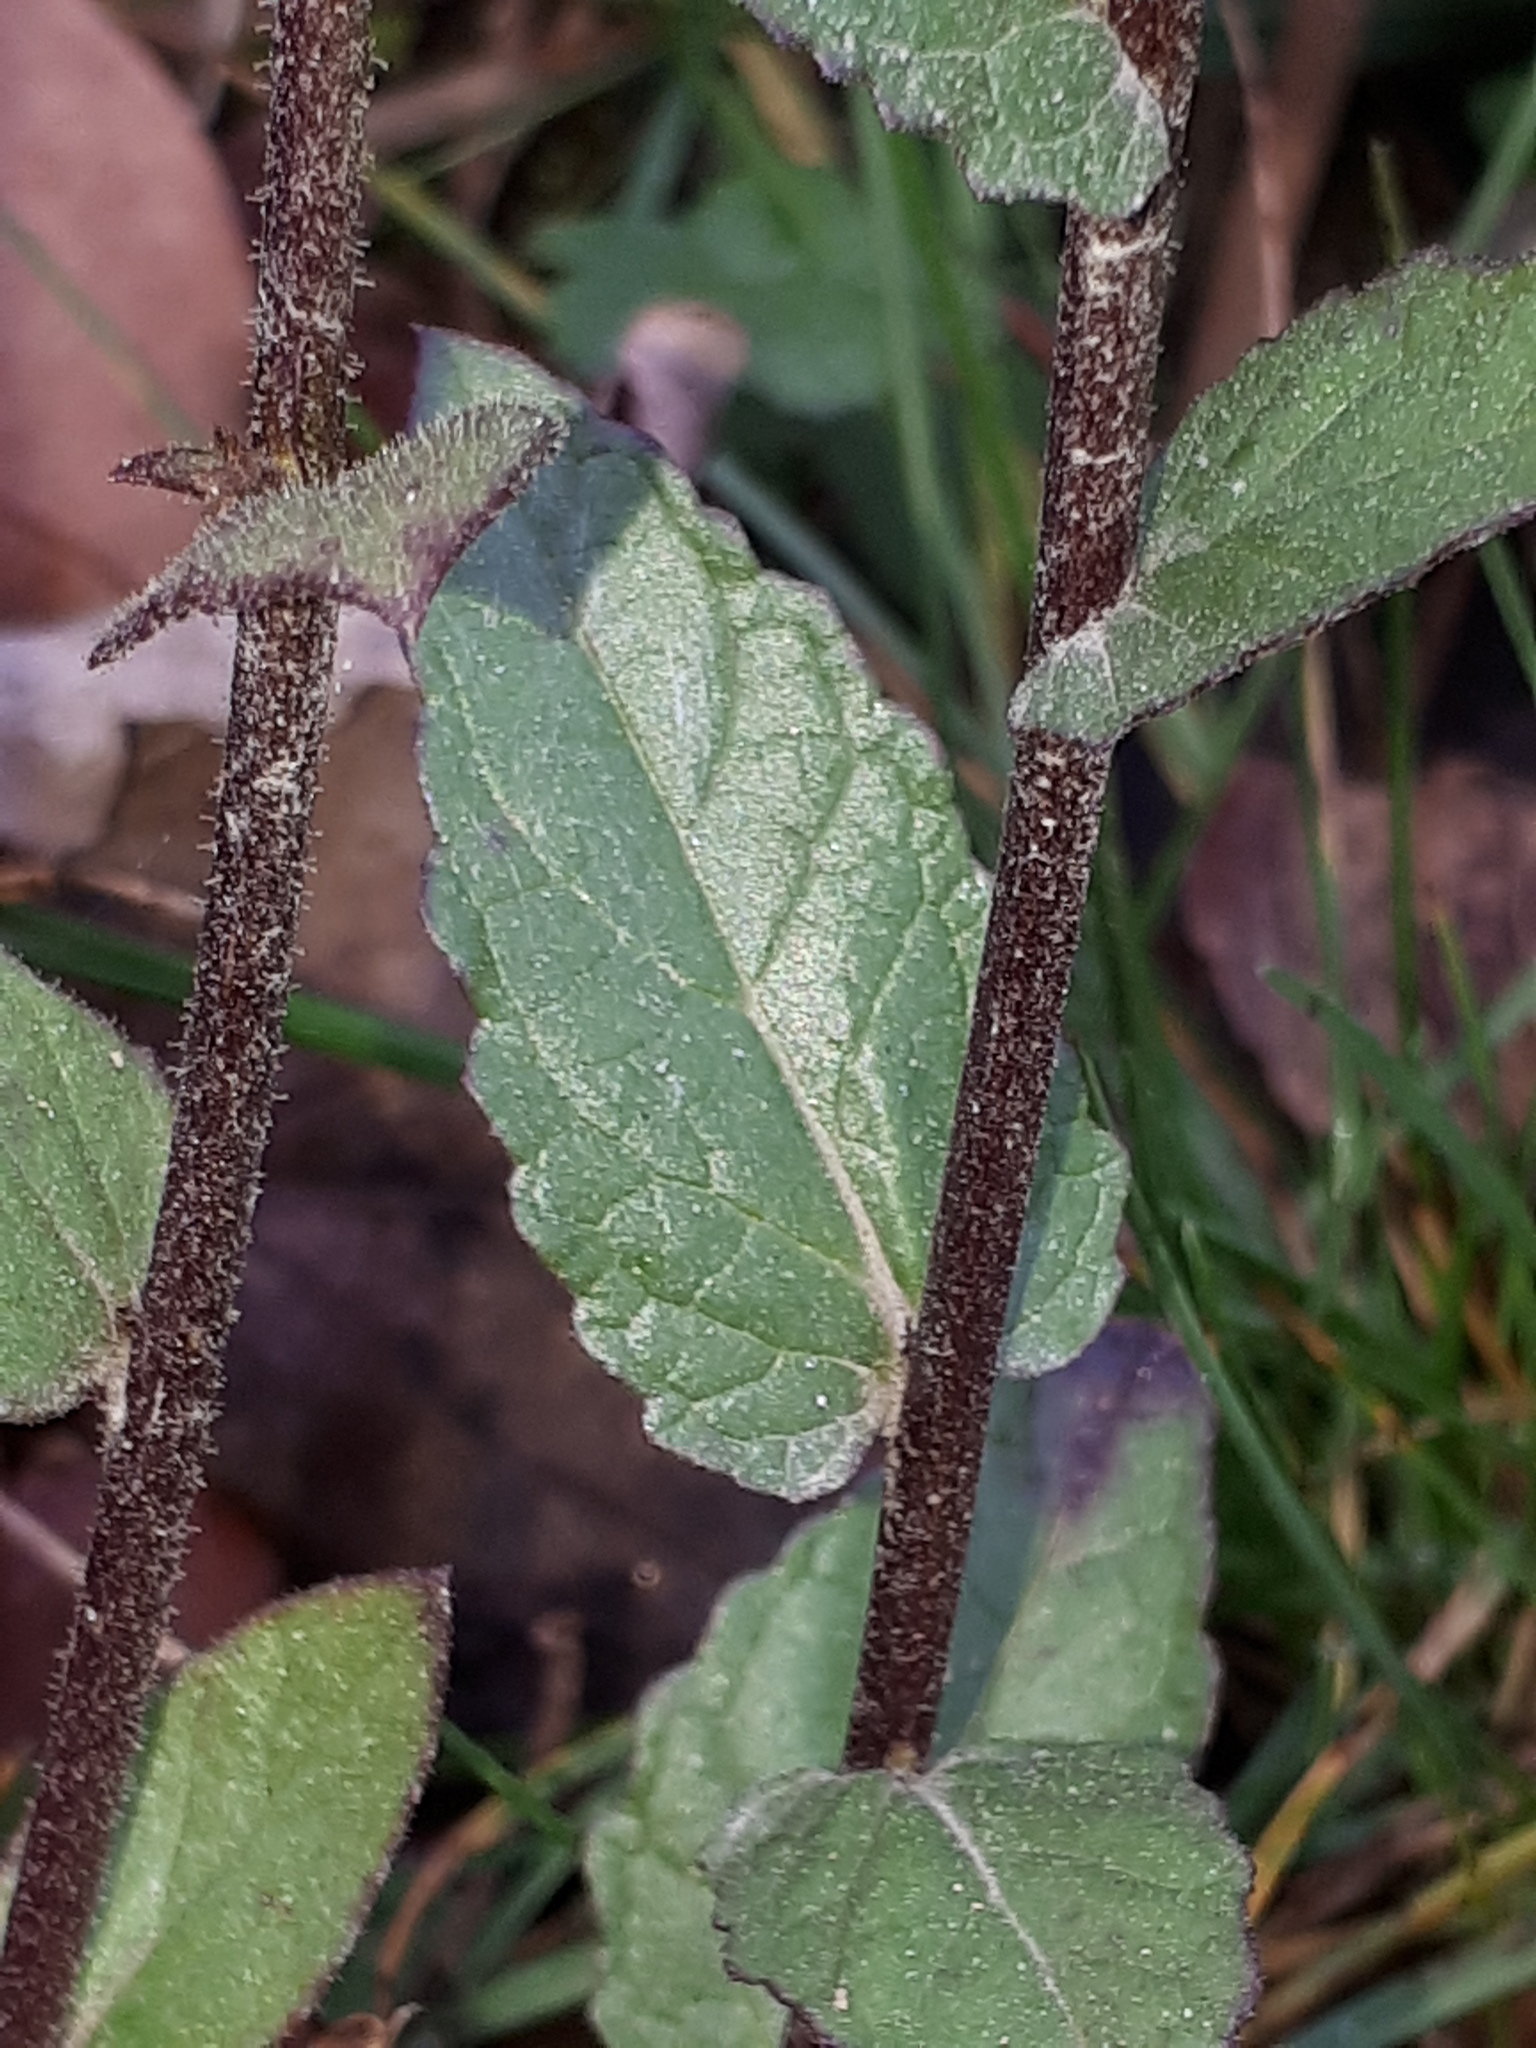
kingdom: Plantae
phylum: Tracheophyta
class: Magnoliopsida
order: Lamiales
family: Scrophulariaceae
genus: Verbascum
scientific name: Verbascum blattaria
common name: Moth mullein
